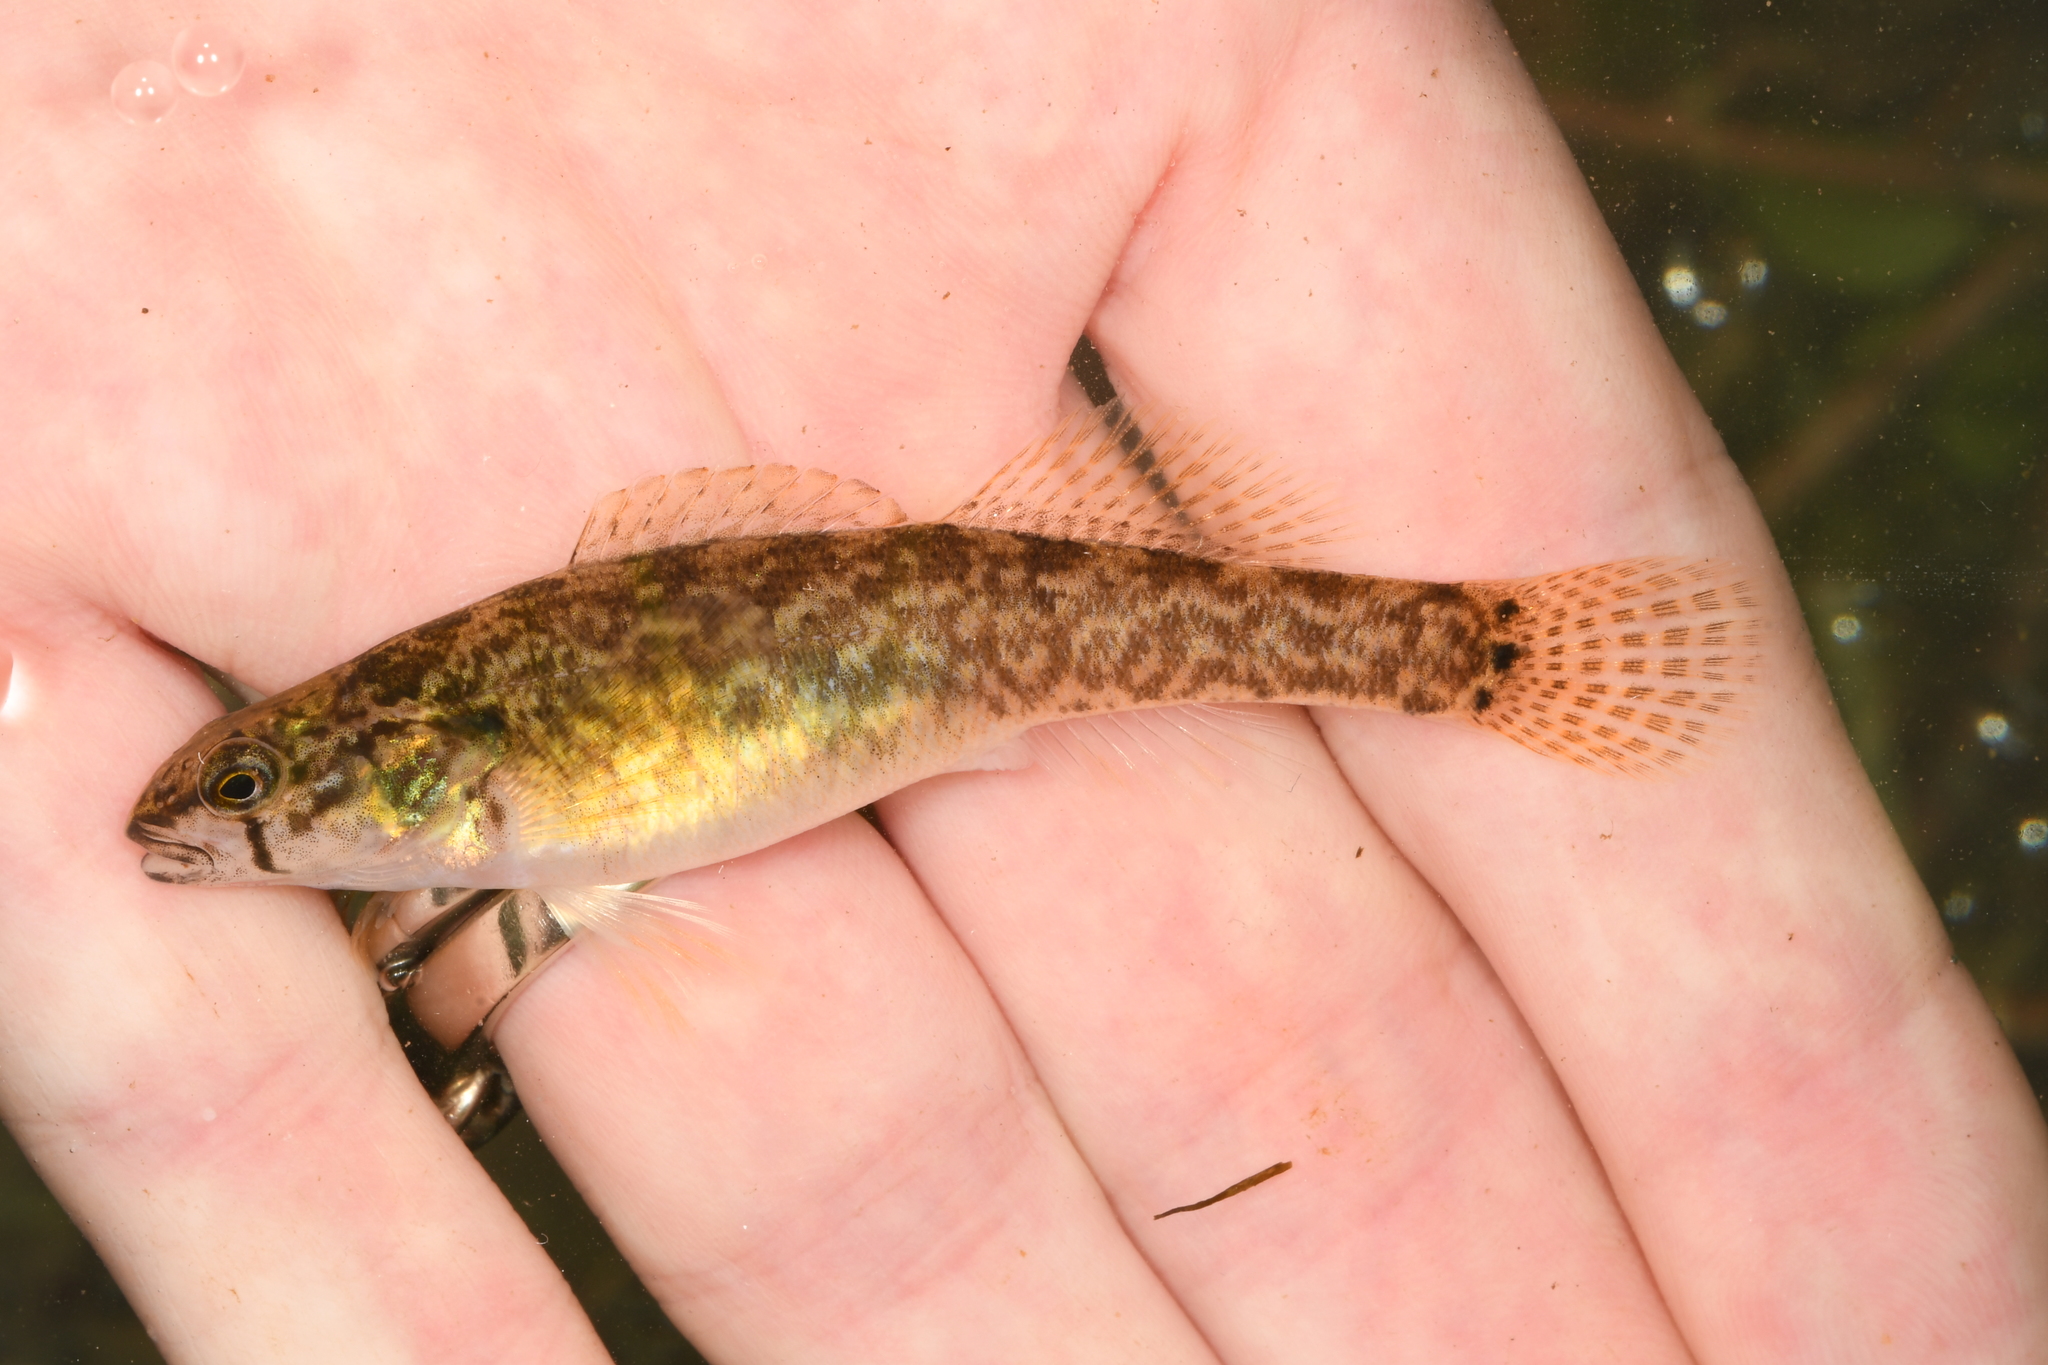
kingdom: Animalia
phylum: Chordata
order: Perciformes
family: Percidae
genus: Etheostoma
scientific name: Etheostoma crossopterum
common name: Fringed darter
